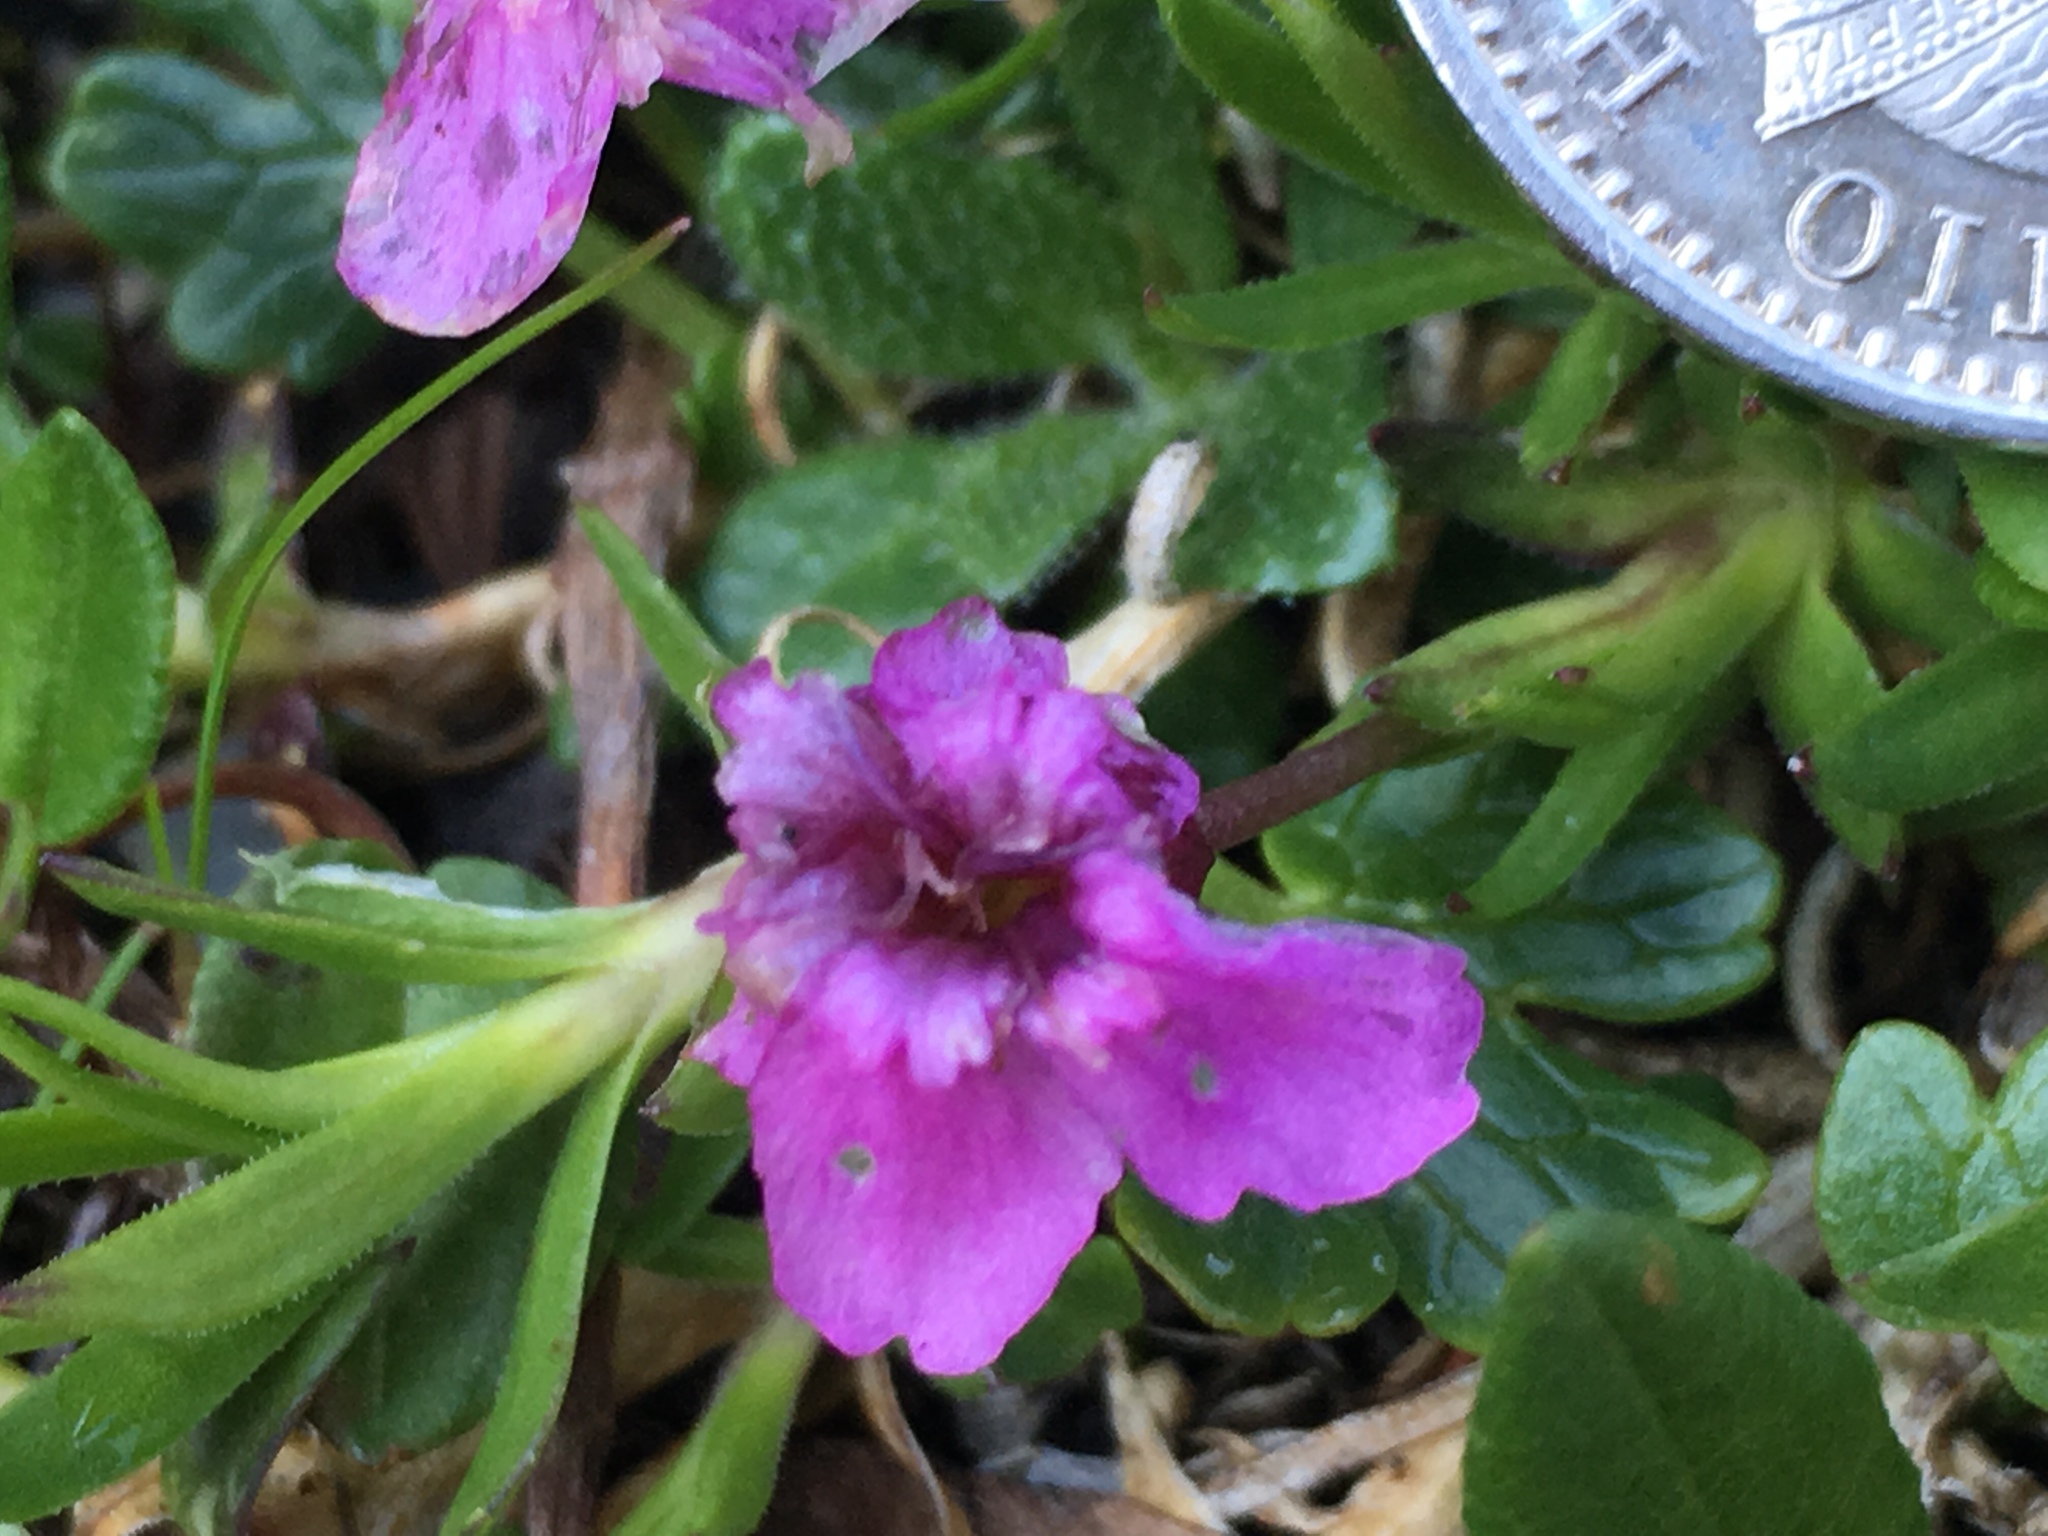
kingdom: Plantae
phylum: Tracheophyta
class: Magnoliopsida
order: Caryophyllales
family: Caryophyllaceae
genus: Silene
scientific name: Silene acaulis
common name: Moss campion
